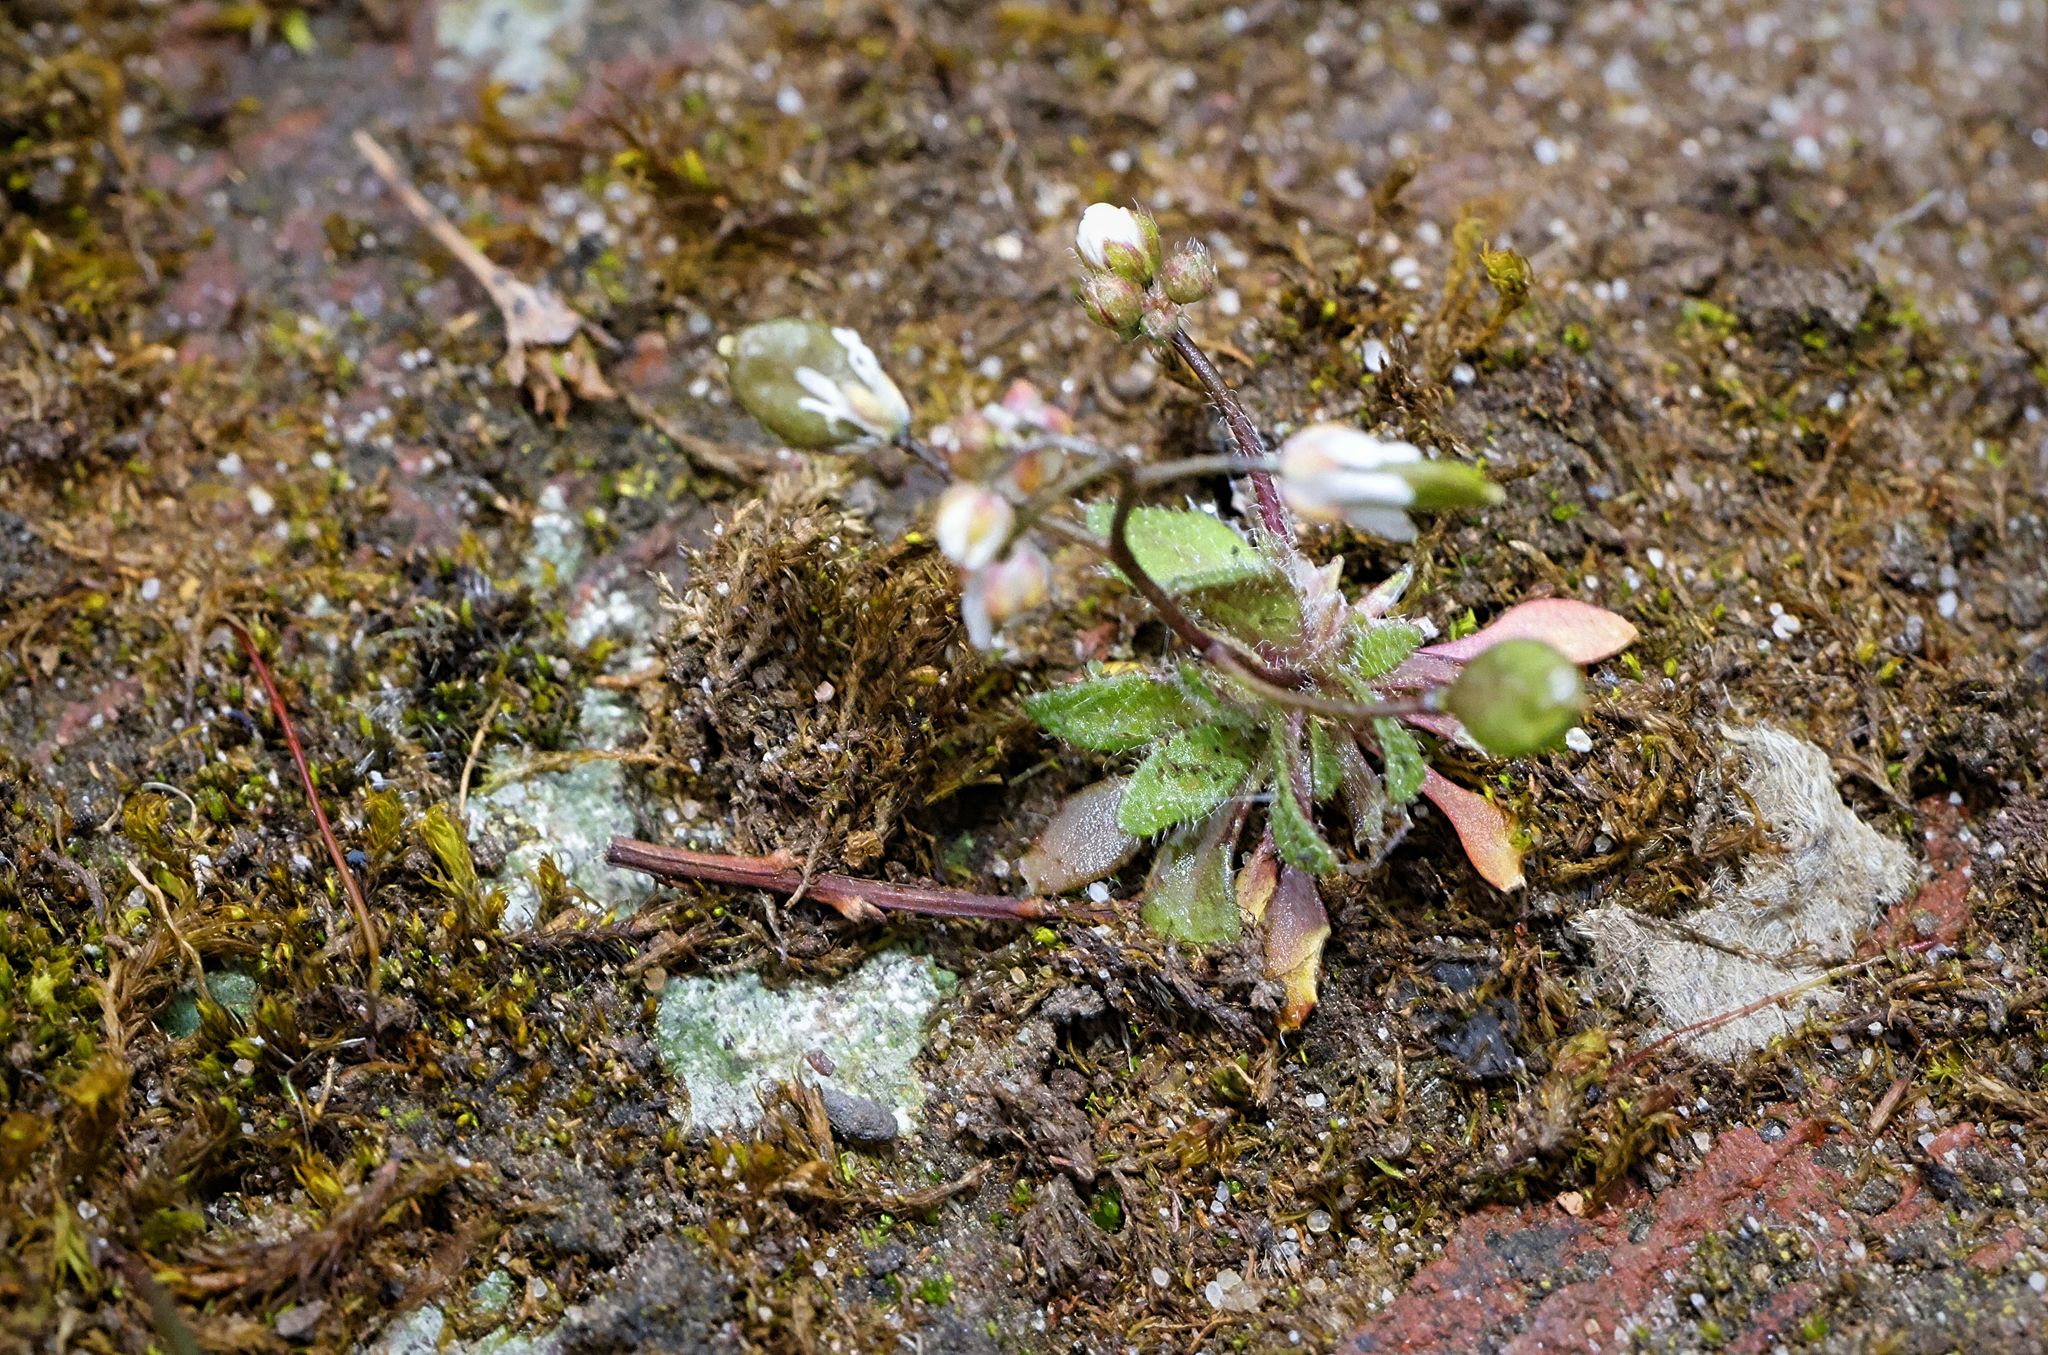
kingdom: Plantae
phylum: Tracheophyta
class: Magnoliopsida
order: Brassicales
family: Brassicaceae
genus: Draba
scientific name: Draba verna
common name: Spring draba
